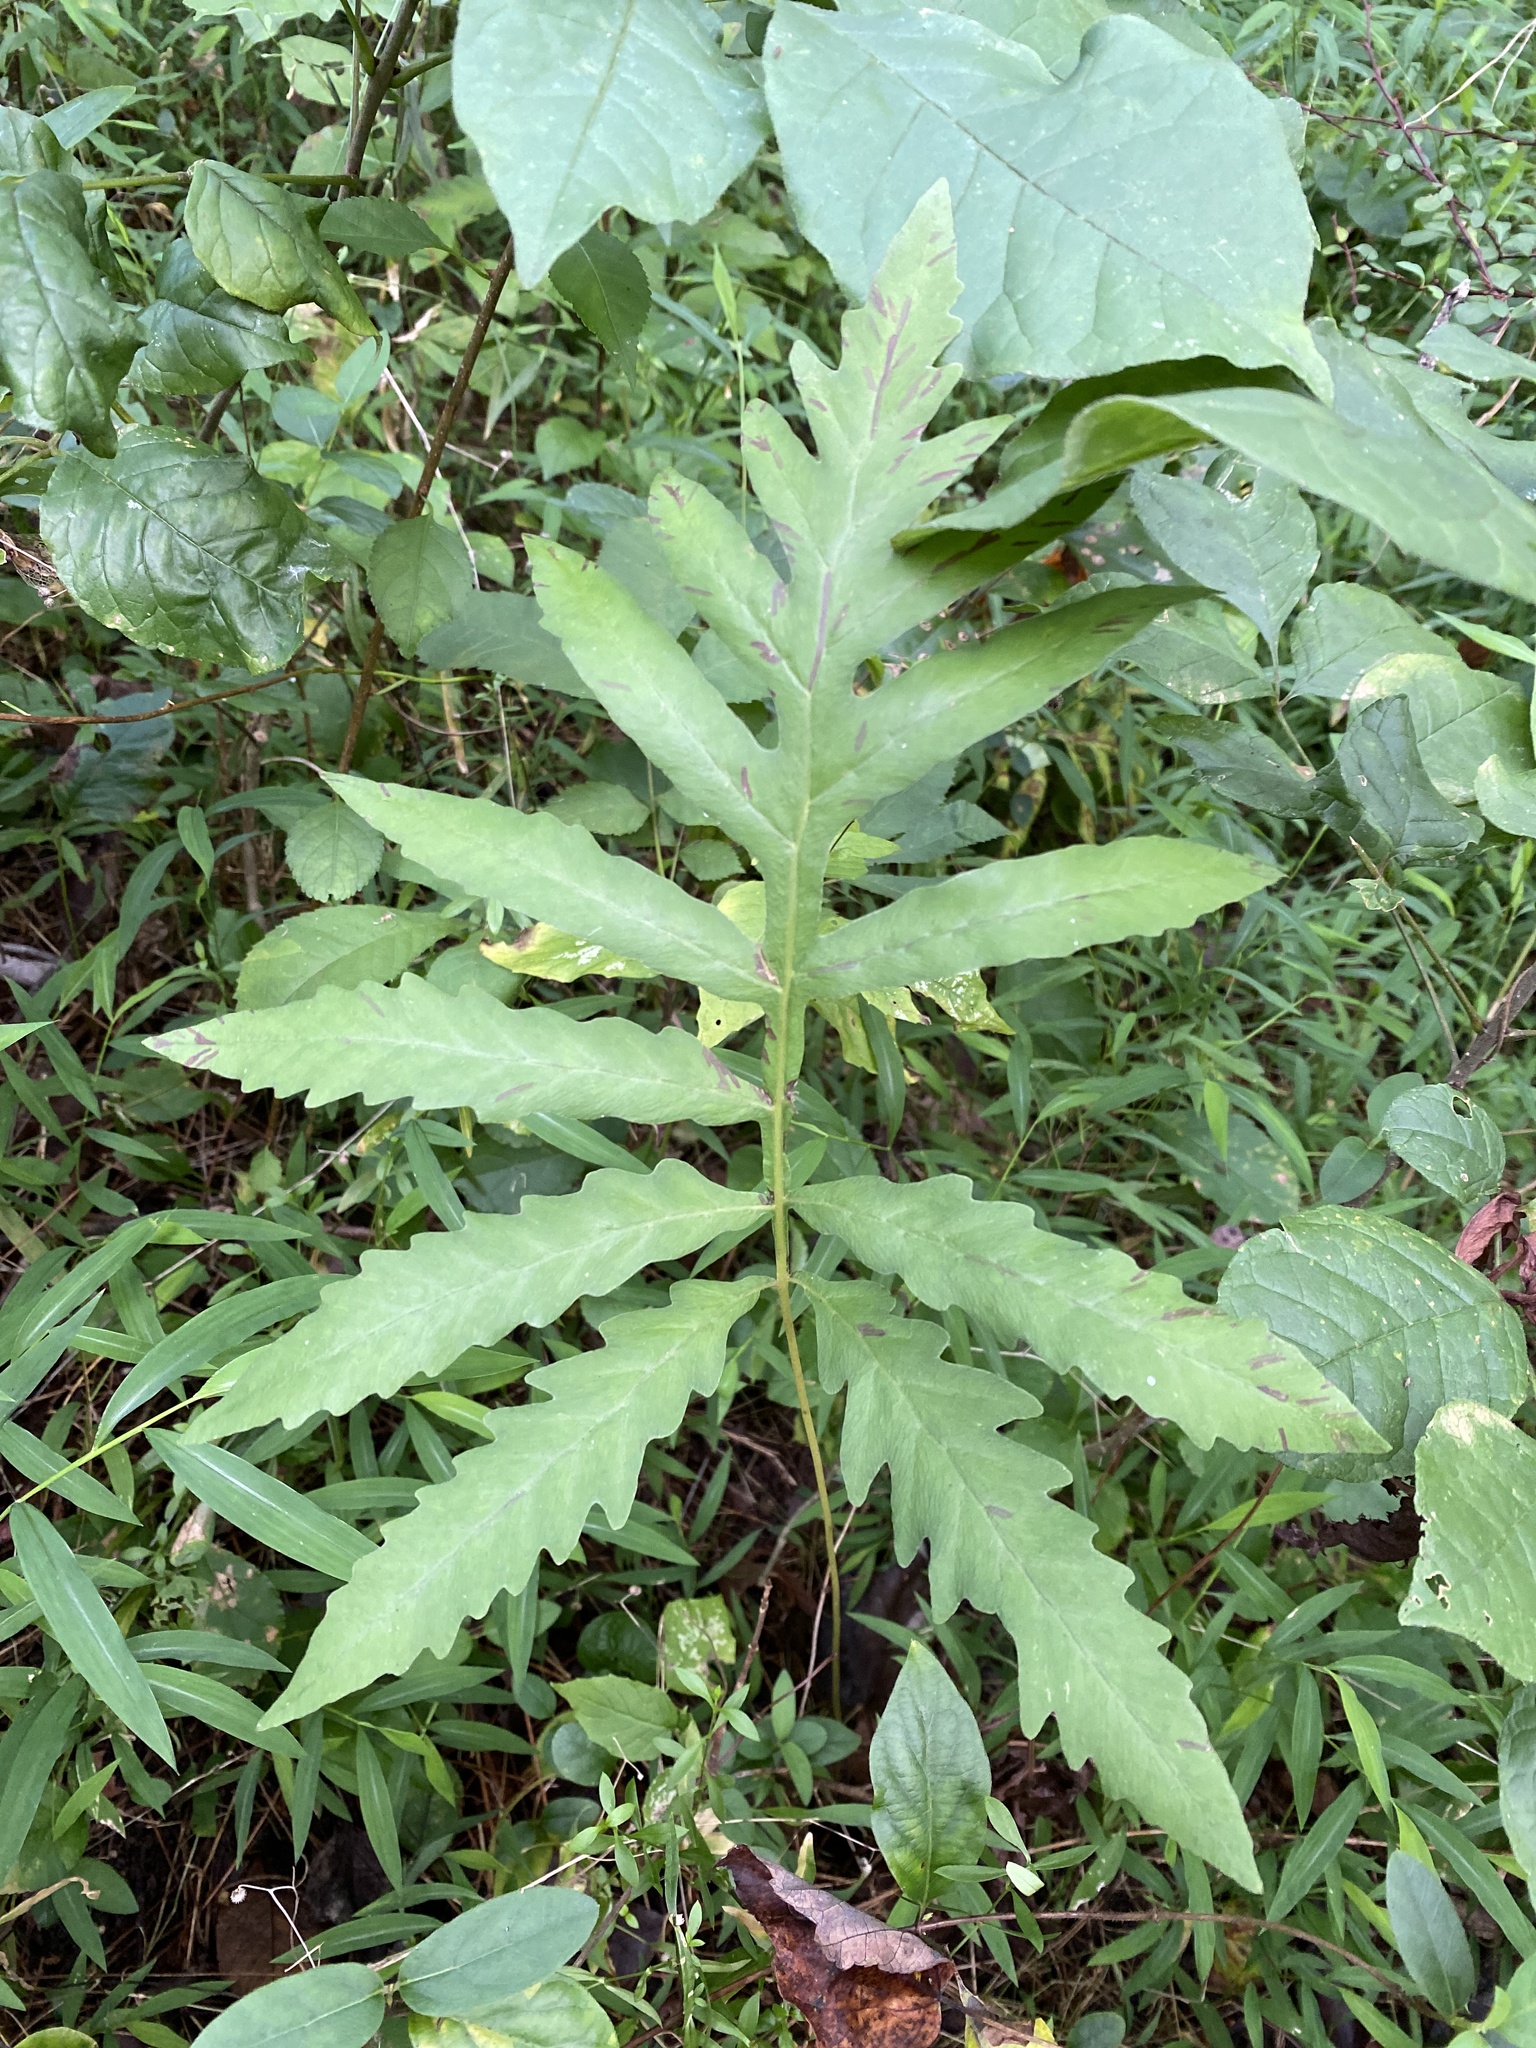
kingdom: Plantae
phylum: Tracheophyta
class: Polypodiopsida
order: Polypodiales
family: Onocleaceae
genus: Onoclea
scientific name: Onoclea sensibilis
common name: Sensitive fern
